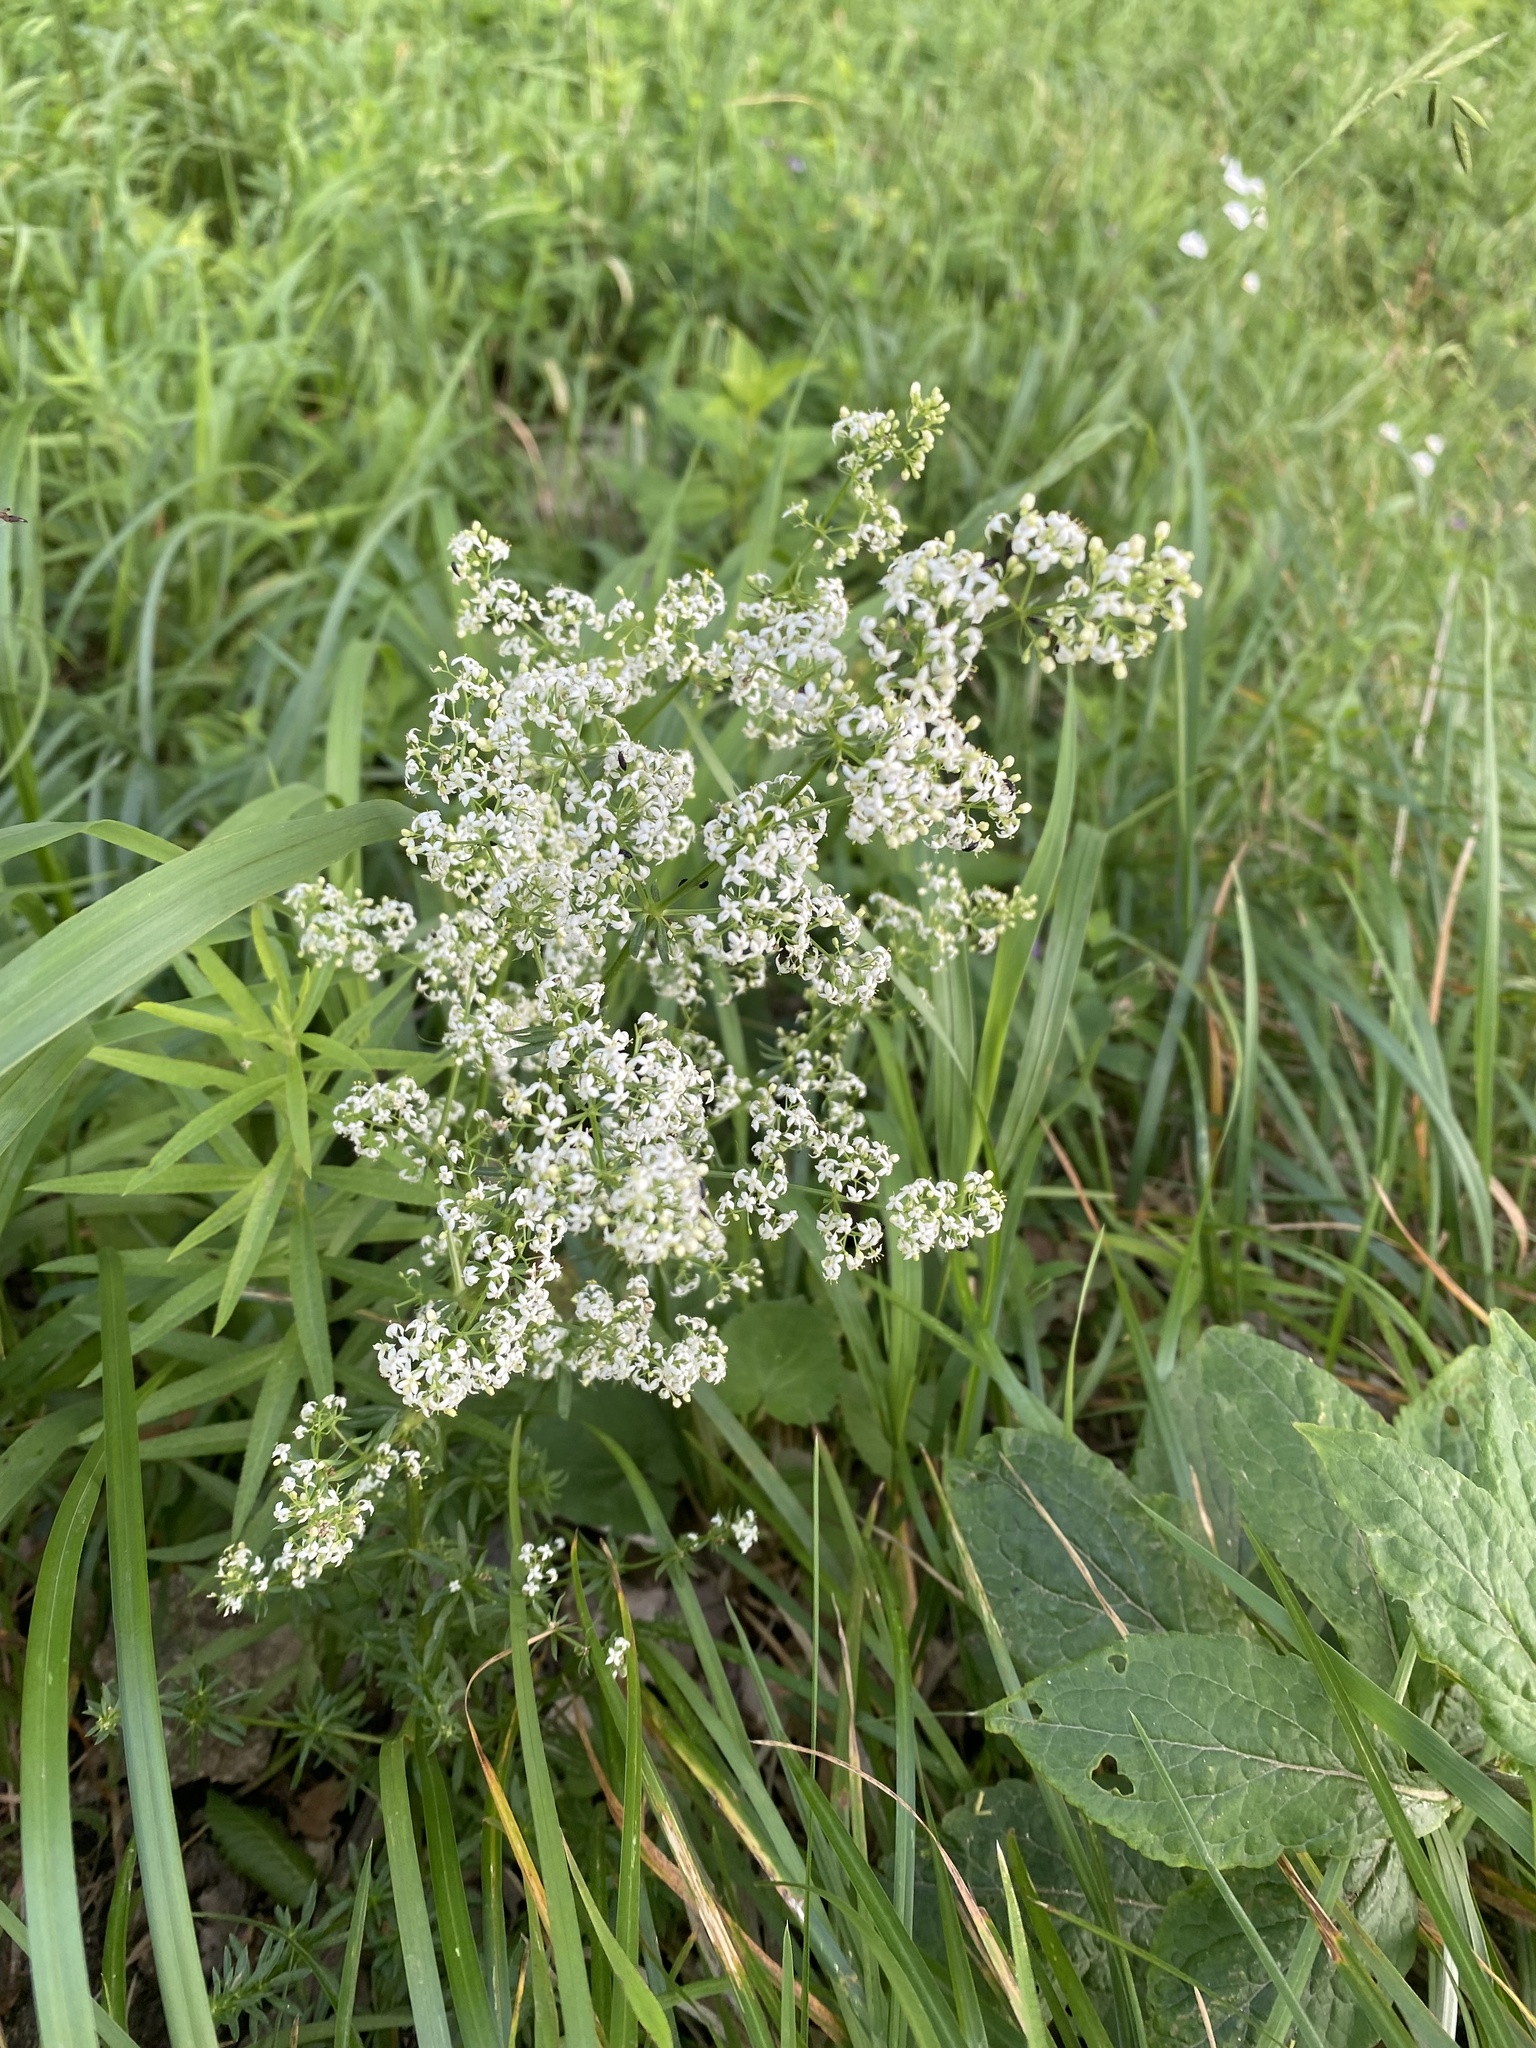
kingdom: Plantae
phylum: Tracheophyta
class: Magnoliopsida
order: Gentianales
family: Rubiaceae
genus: Galium
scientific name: Galium mollugo
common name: Hedge bedstraw
